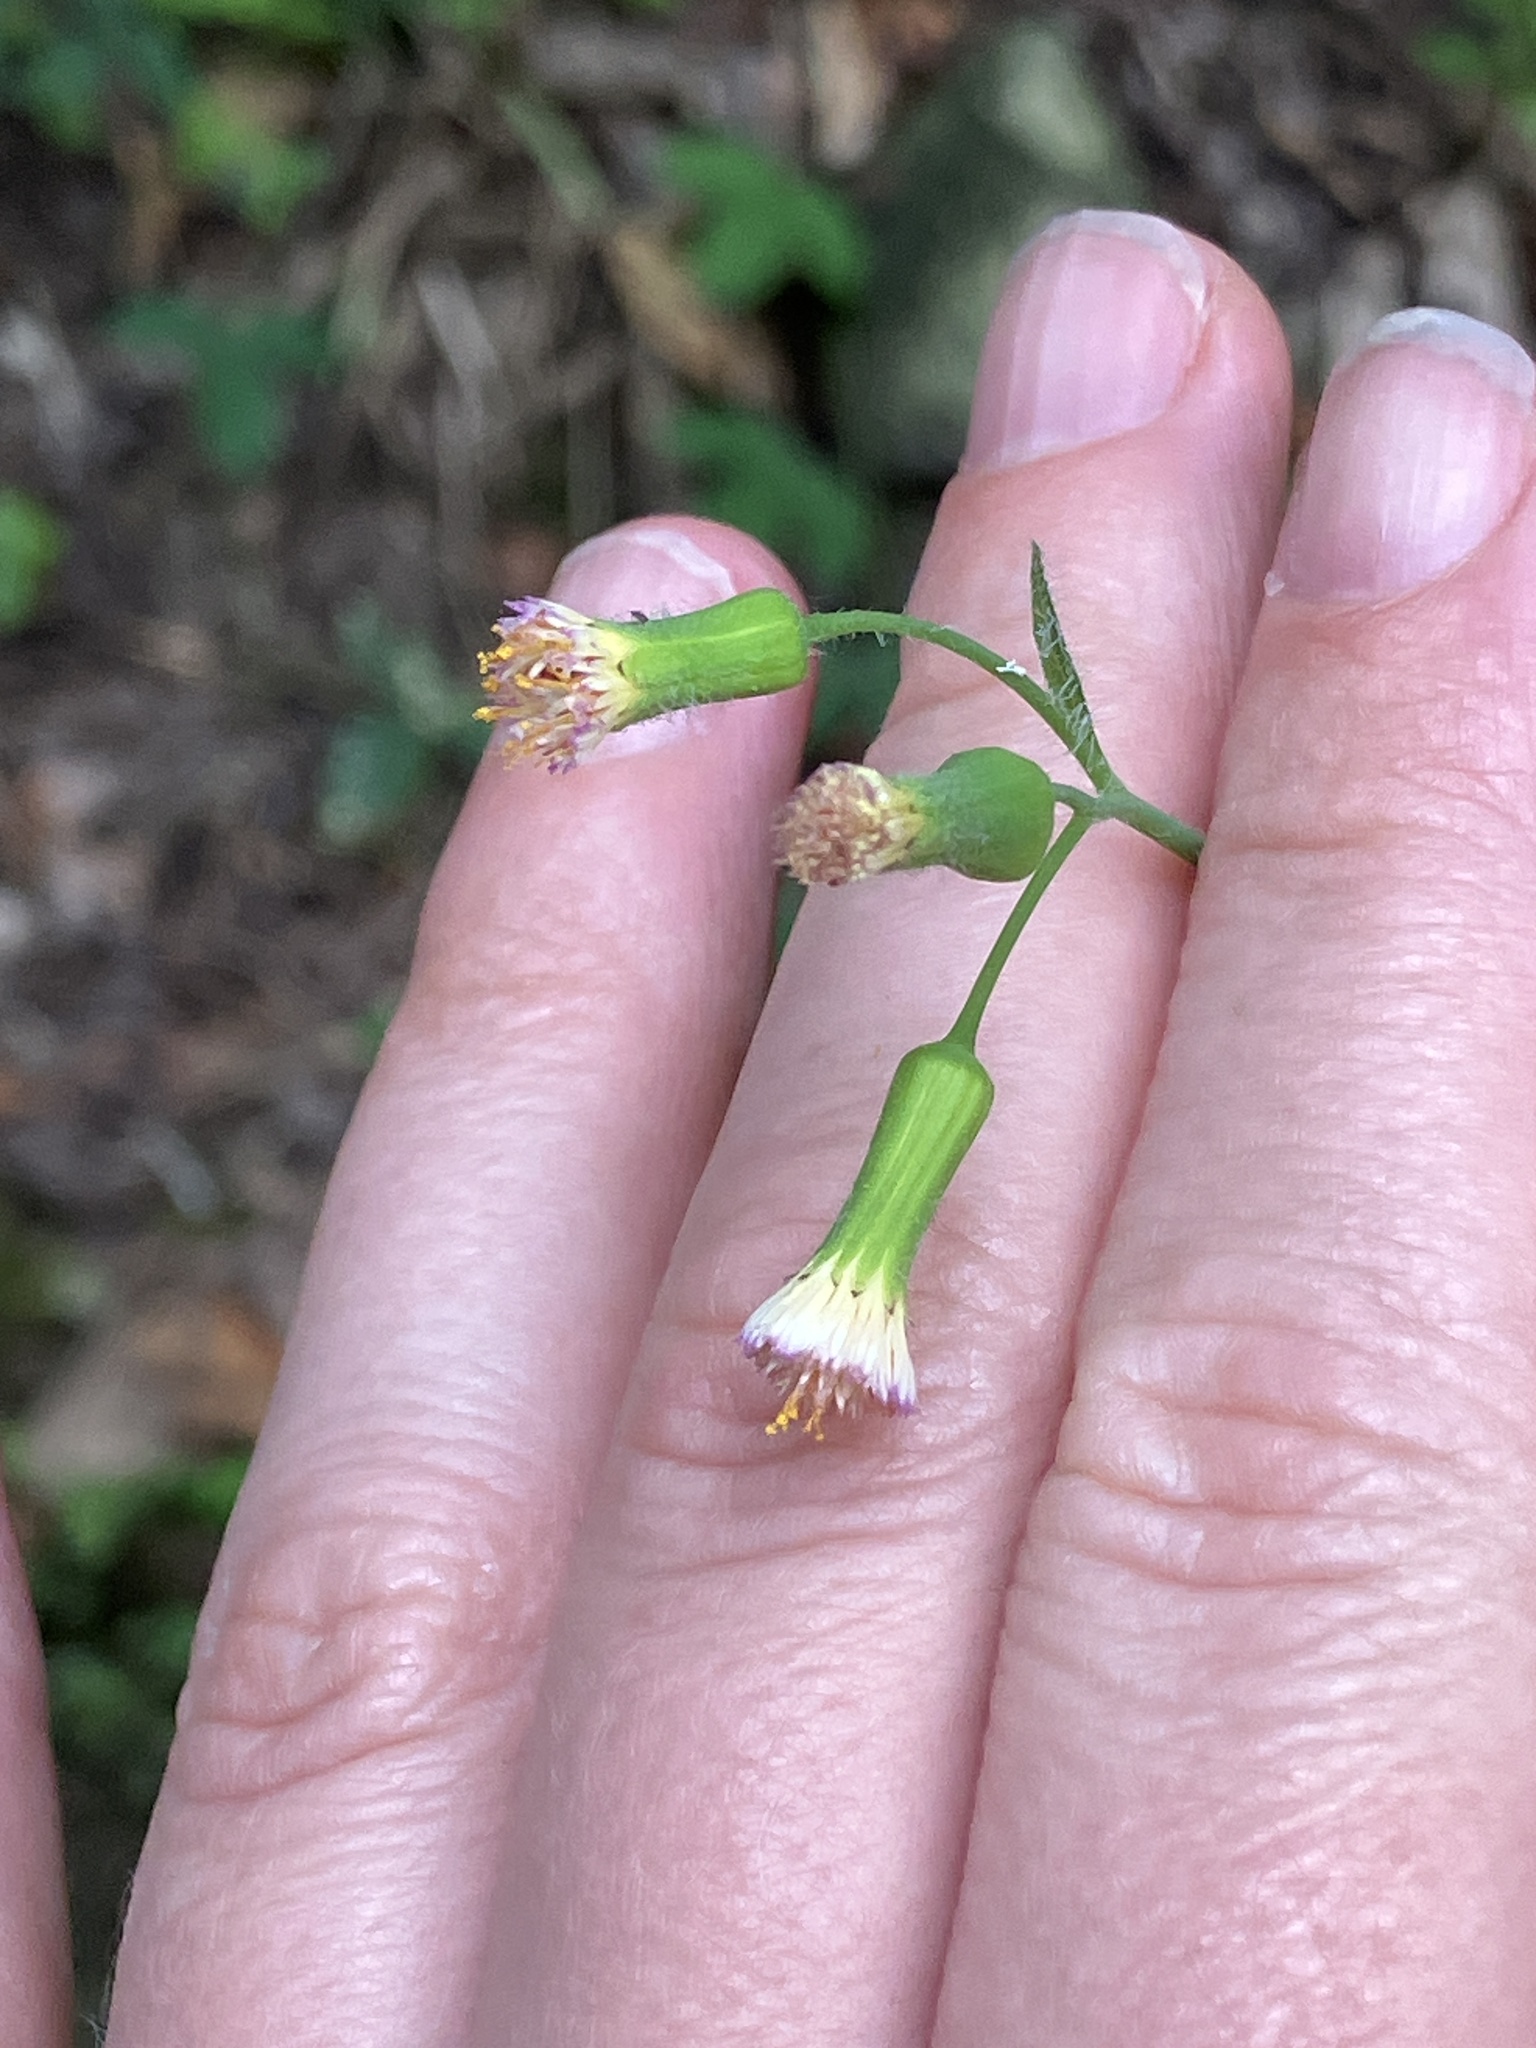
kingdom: Plantae
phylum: Tracheophyta
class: Magnoliopsida
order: Asterales
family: Asteraceae
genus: Emilia
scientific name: Emilia praetermissa
